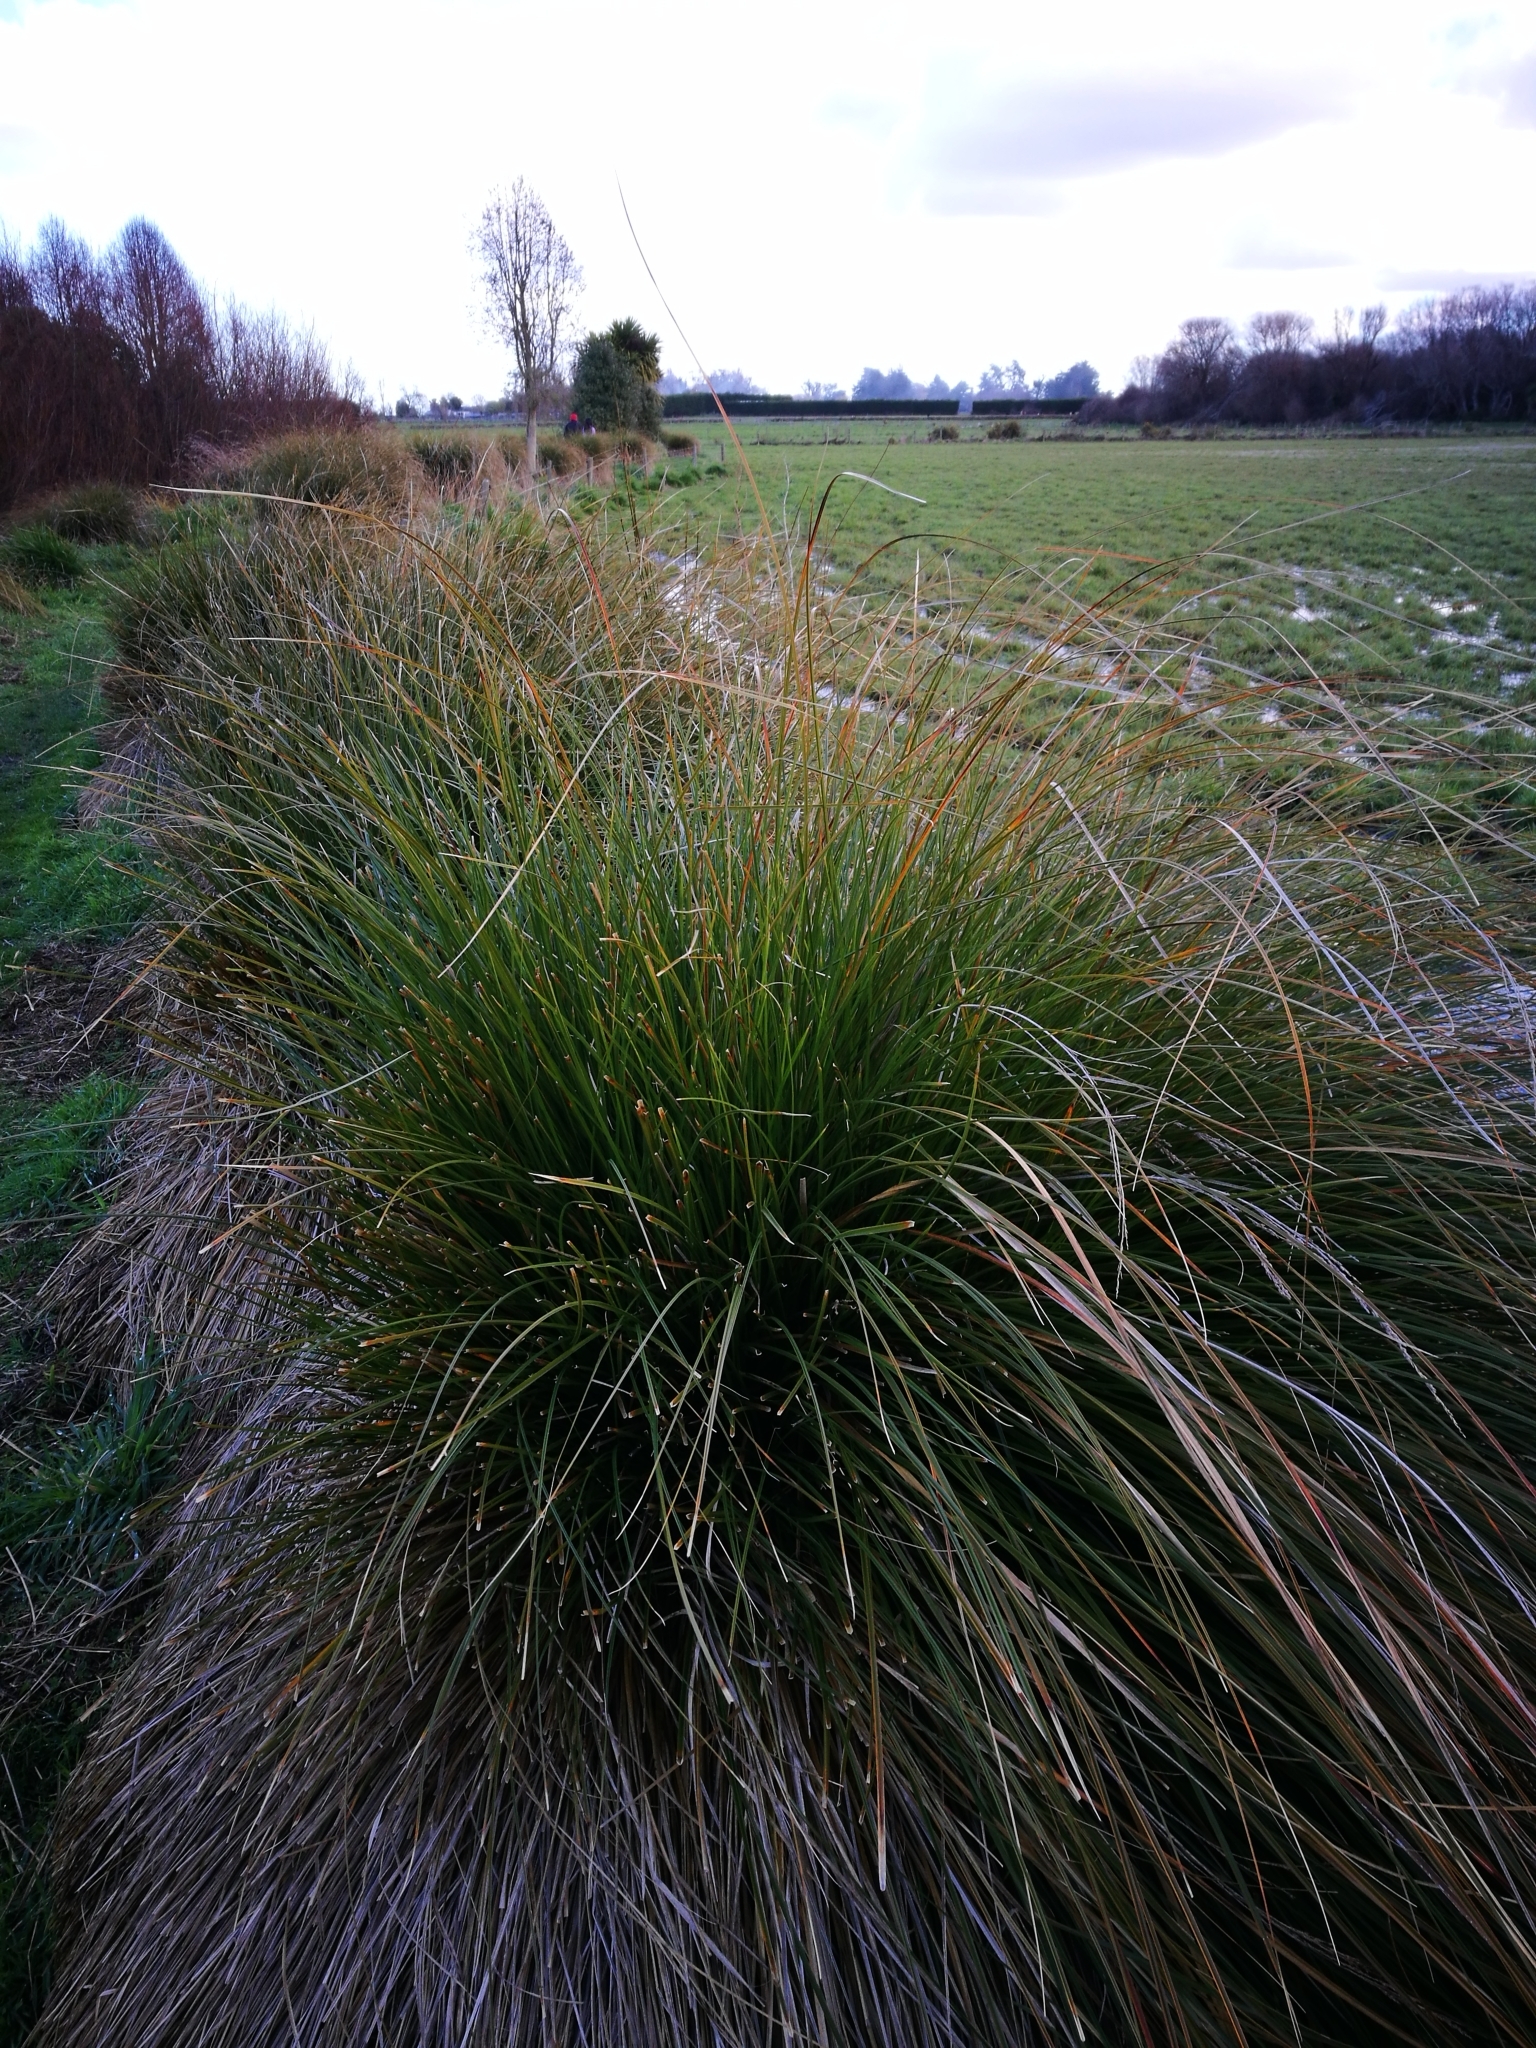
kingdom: Plantae
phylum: Tracheophyta
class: Liliopsida
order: Poales
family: Cyperaceae
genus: Carex
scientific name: Carex secta
